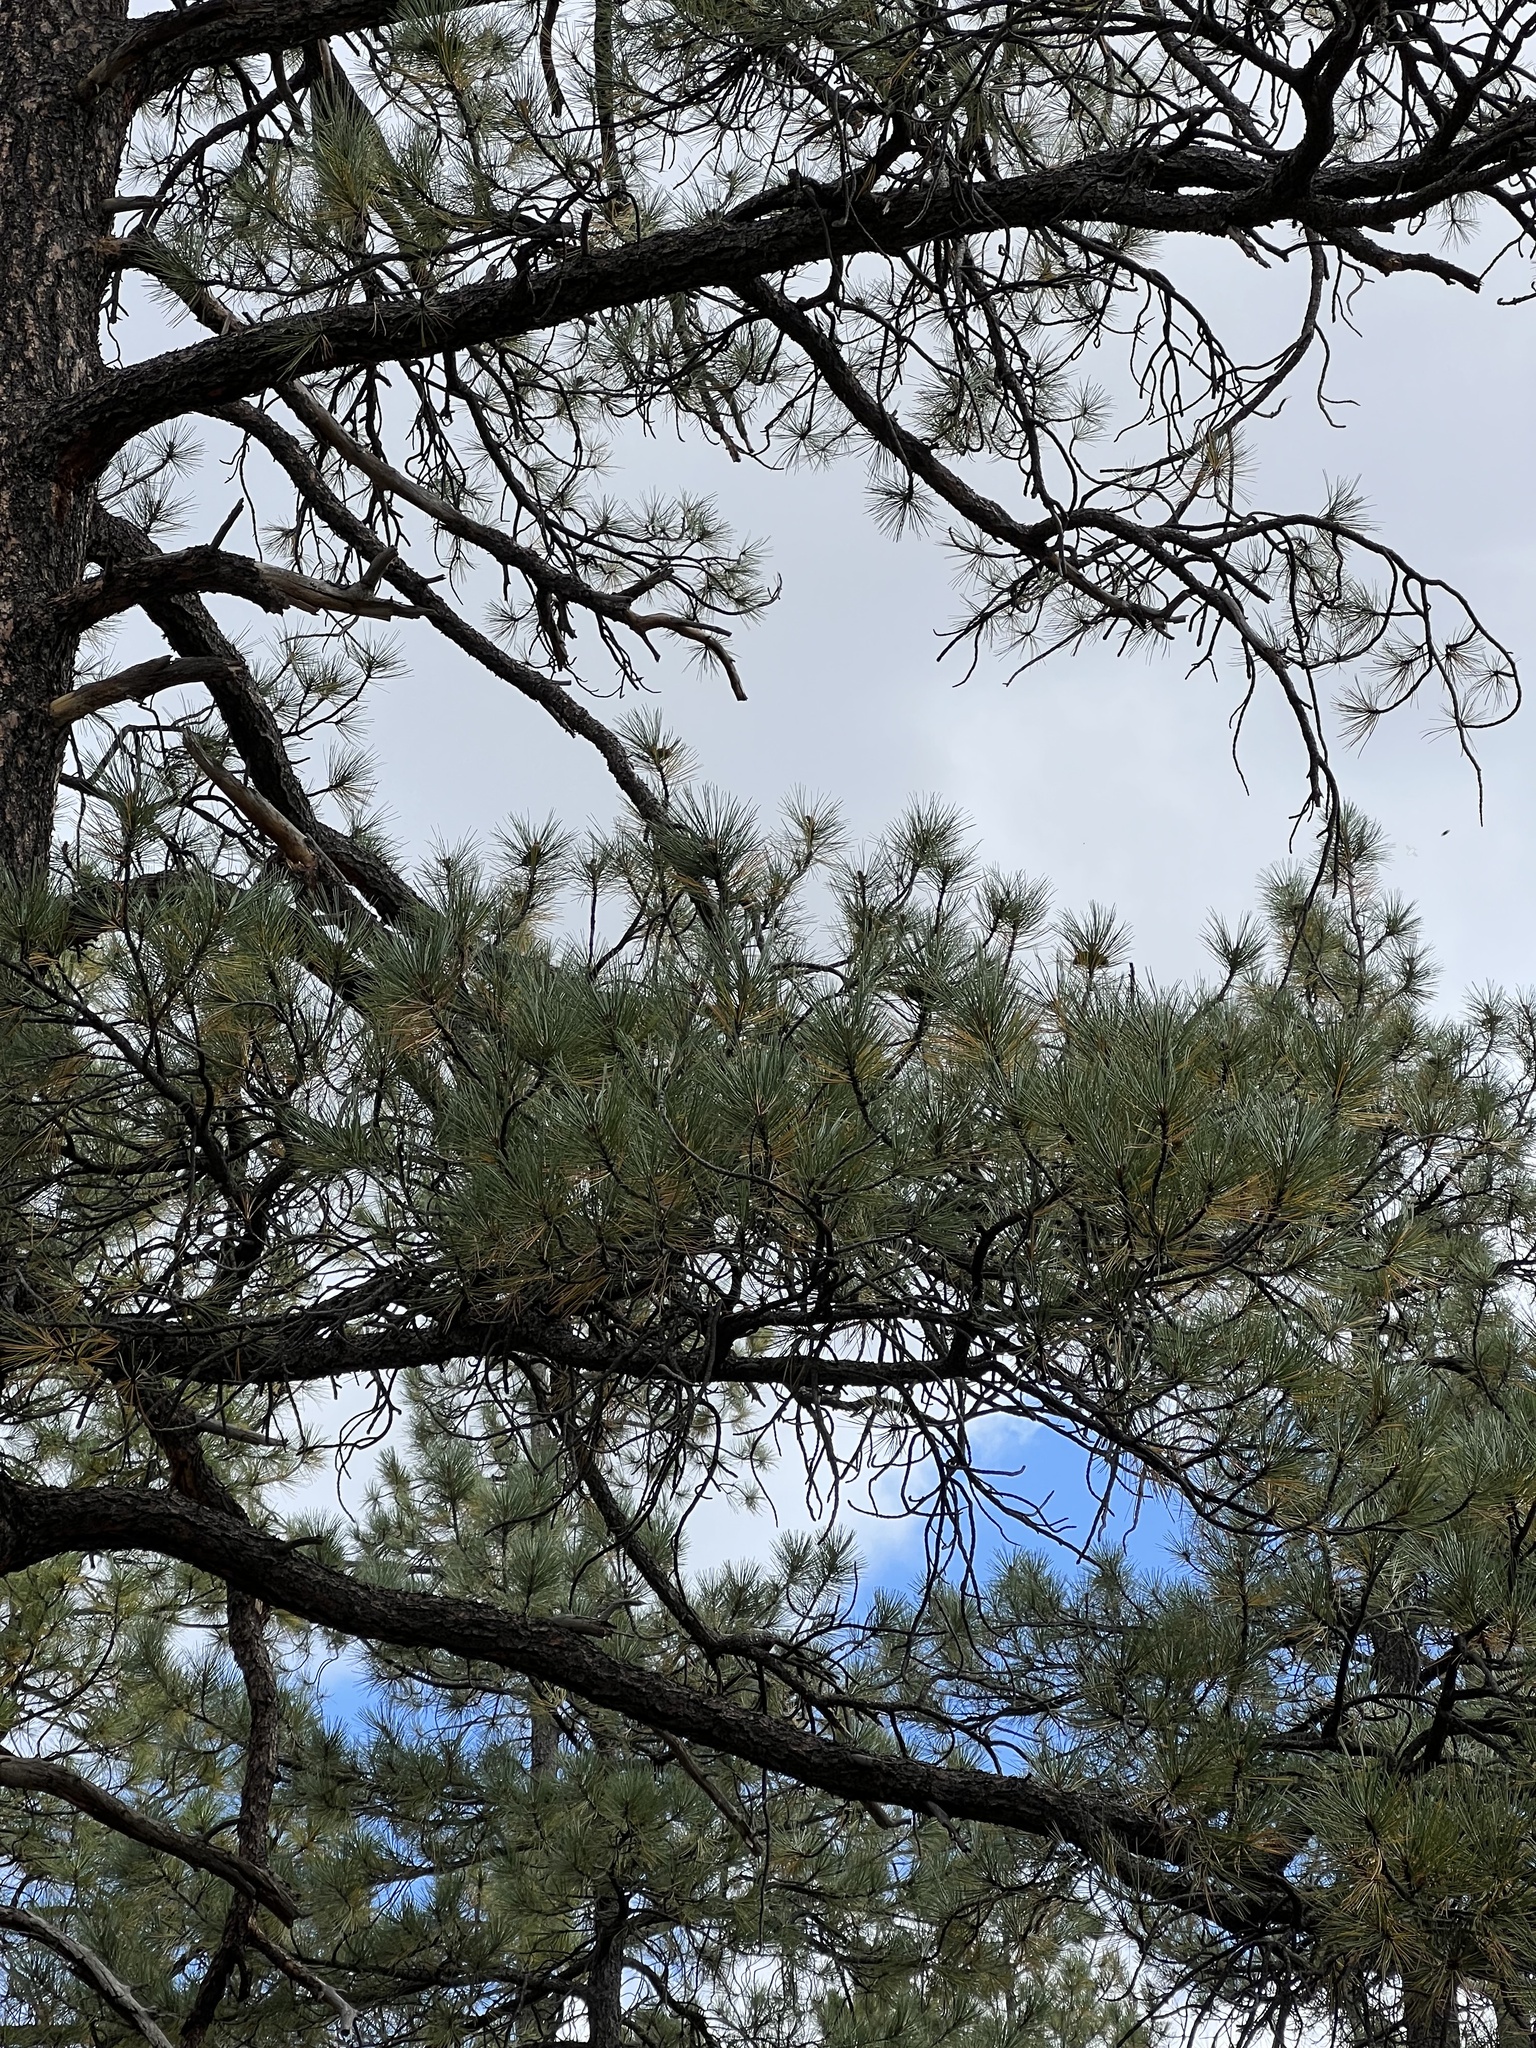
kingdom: Plantae
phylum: Tracheophyta
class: Pinopsida
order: Pinales
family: Pinaceae
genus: Pinus
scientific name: Pinus ponderosa
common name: Western yellow-pine
